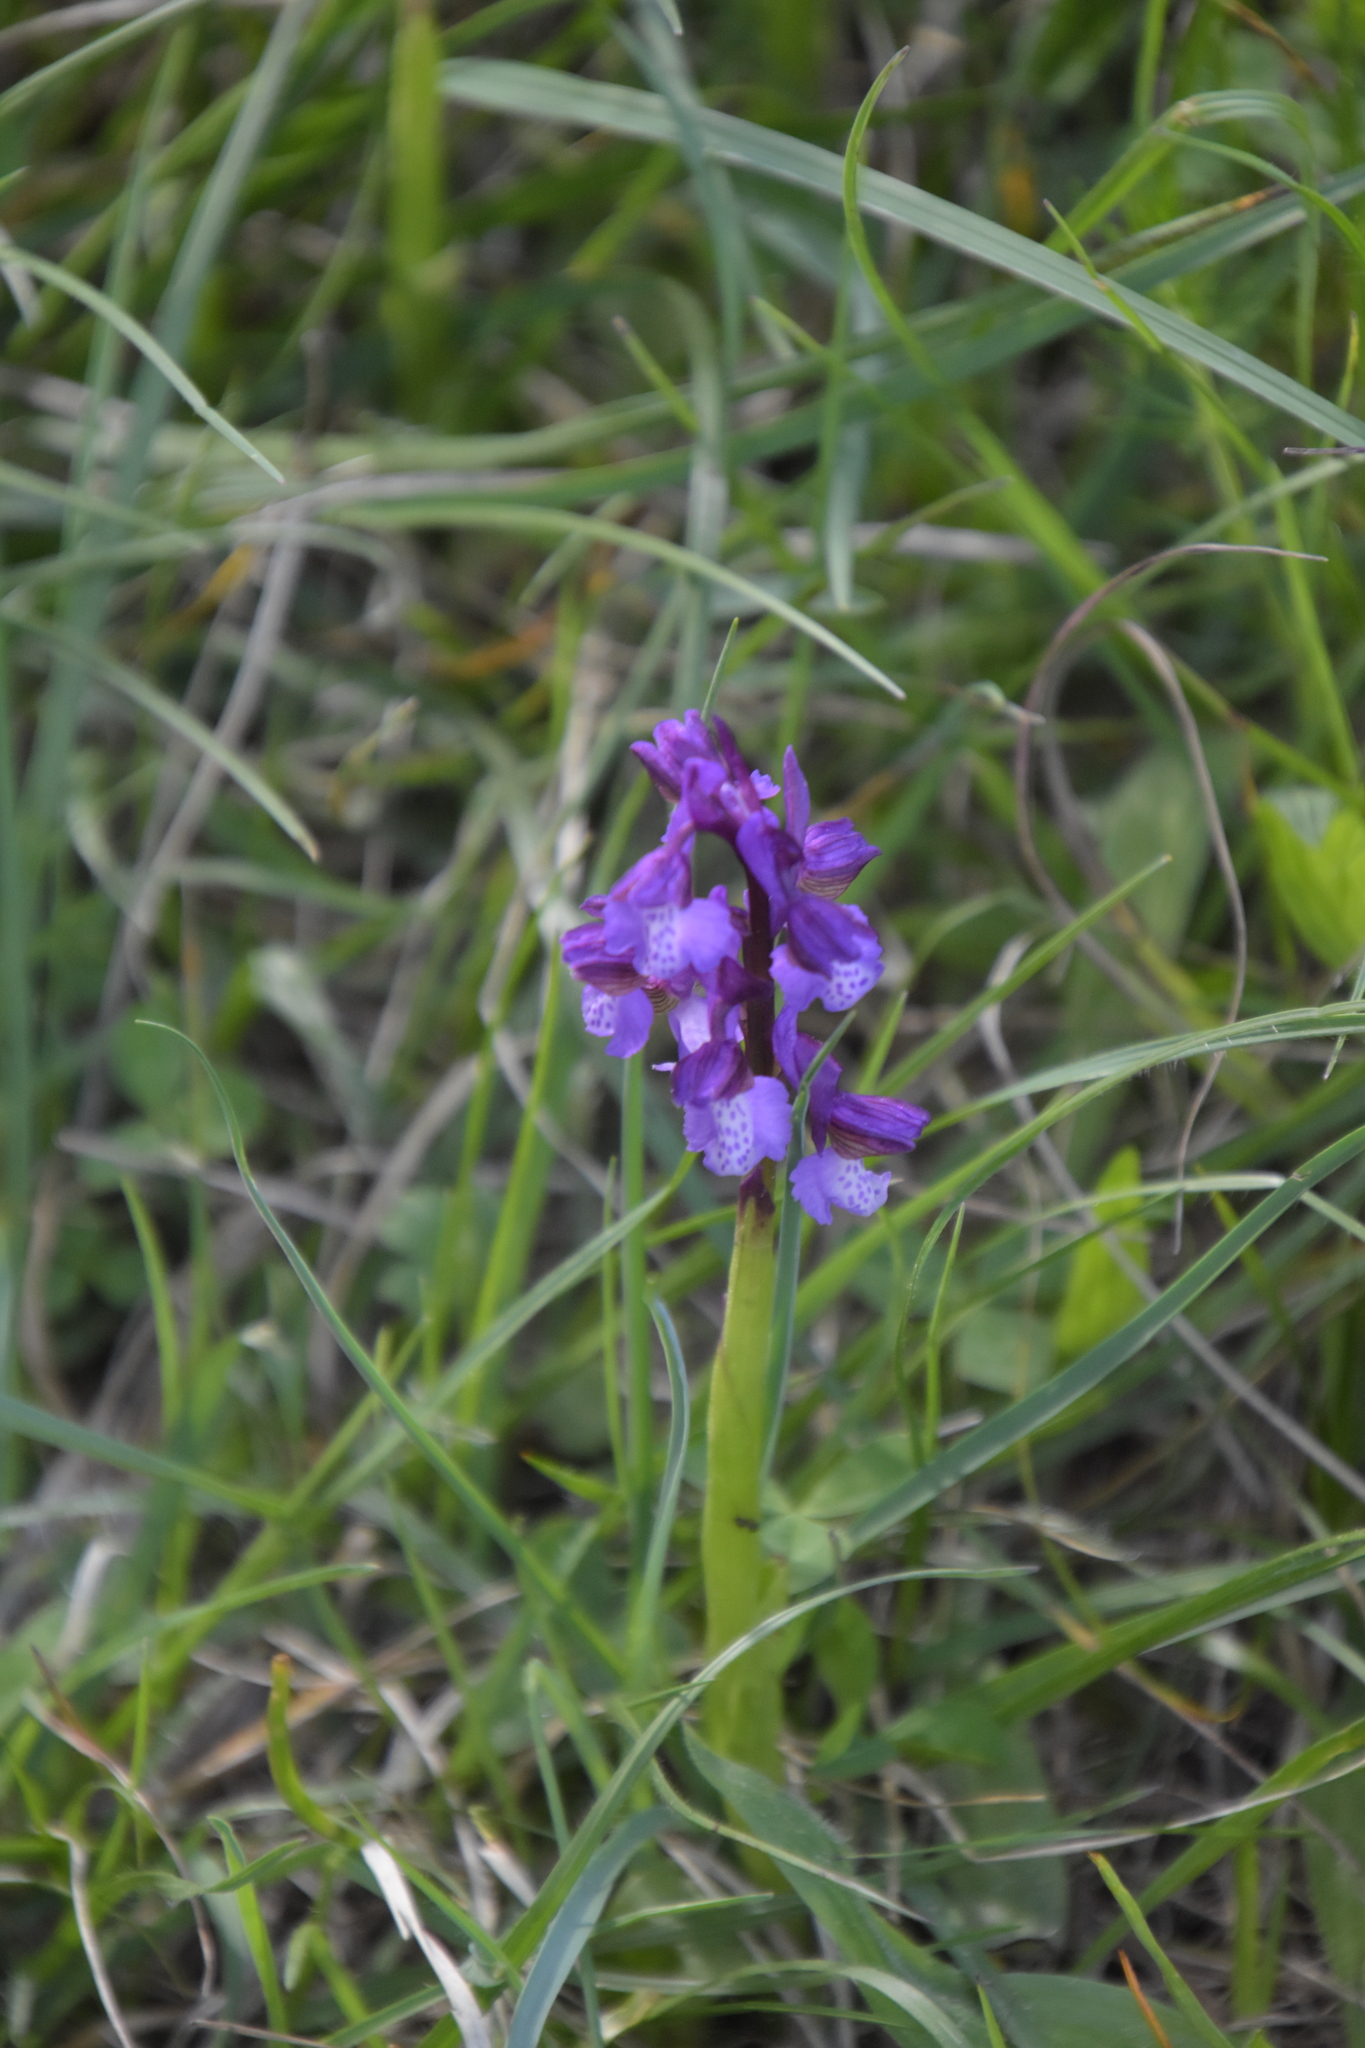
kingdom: Plantae
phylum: Tracheophyta
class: Liliopsida
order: Asparagales
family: Orchidaceae
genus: Anacamptis
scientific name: Anacamptis morio
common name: Green-winged orchid
